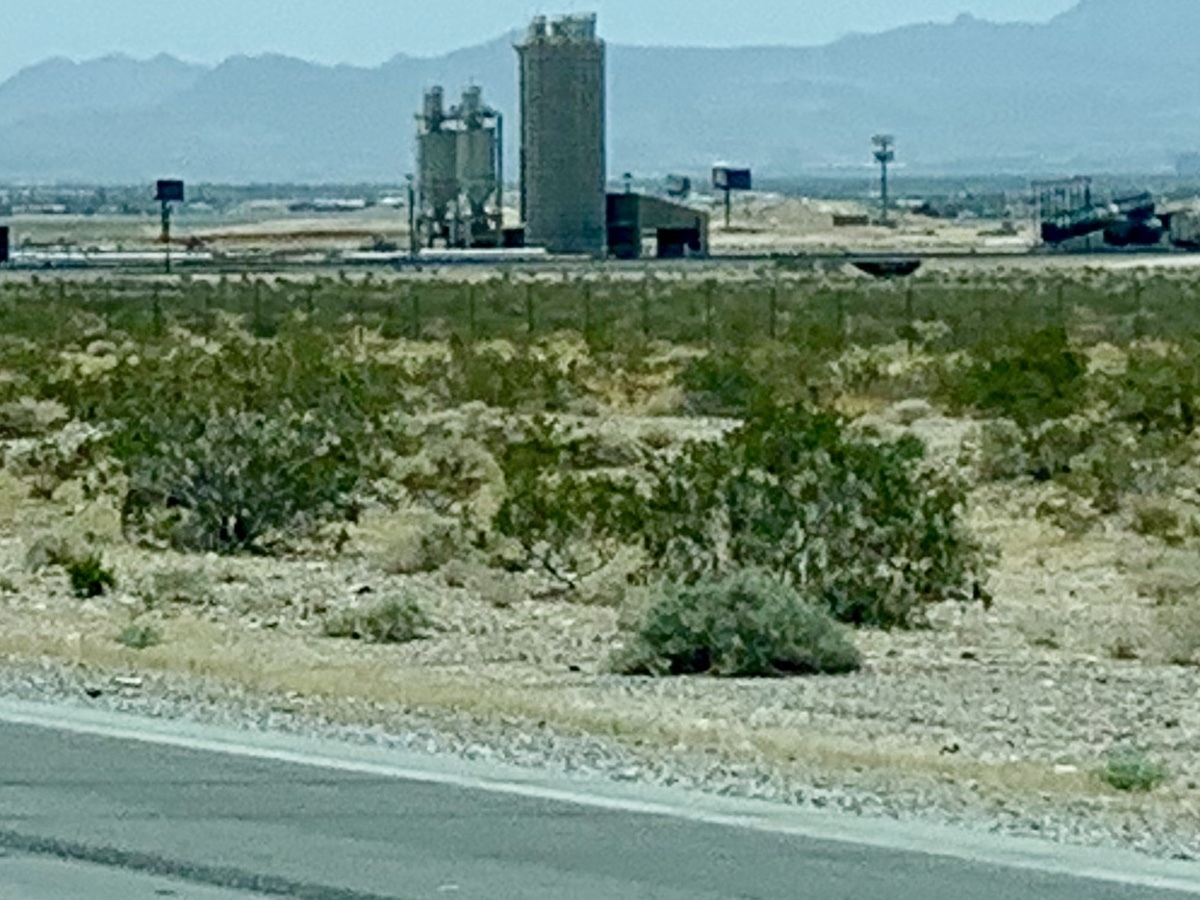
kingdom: Plantae
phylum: Tracheophyta
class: Magnoliopsida
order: Zygophyllales
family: Zygophyllaceae
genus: Larrea
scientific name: Larrea tridentata
